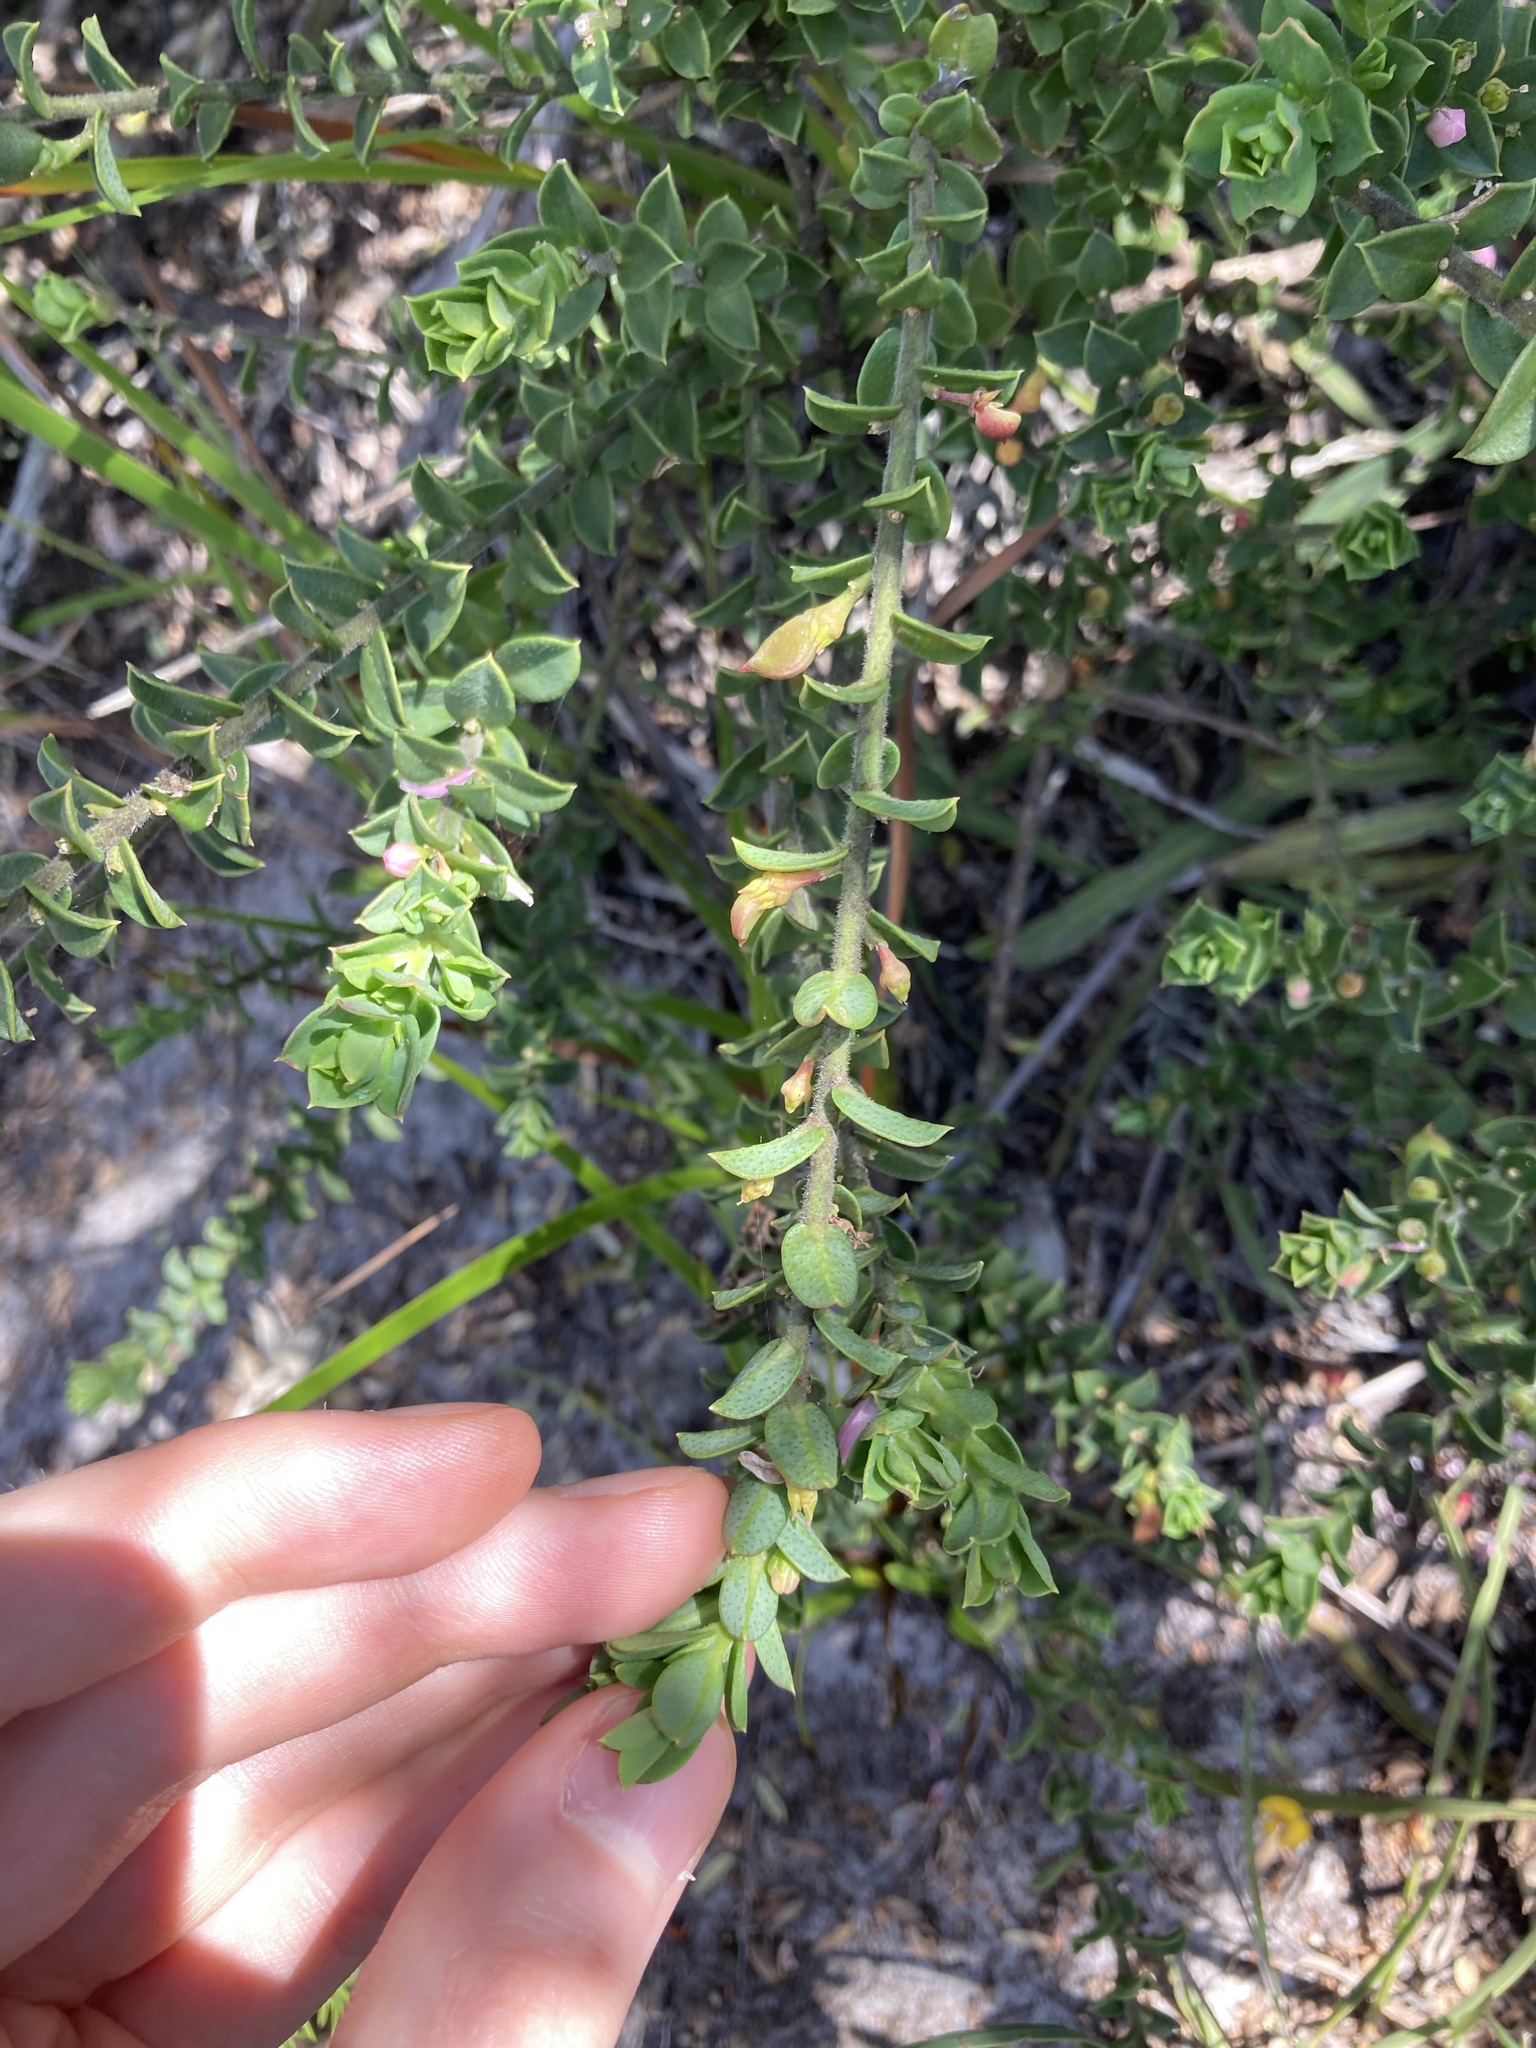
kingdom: Plantae
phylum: Tracheophyta
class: Magnoliopsida
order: Sapindales
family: Rutaceae
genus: Philotheca
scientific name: Philotheca buxifolia
